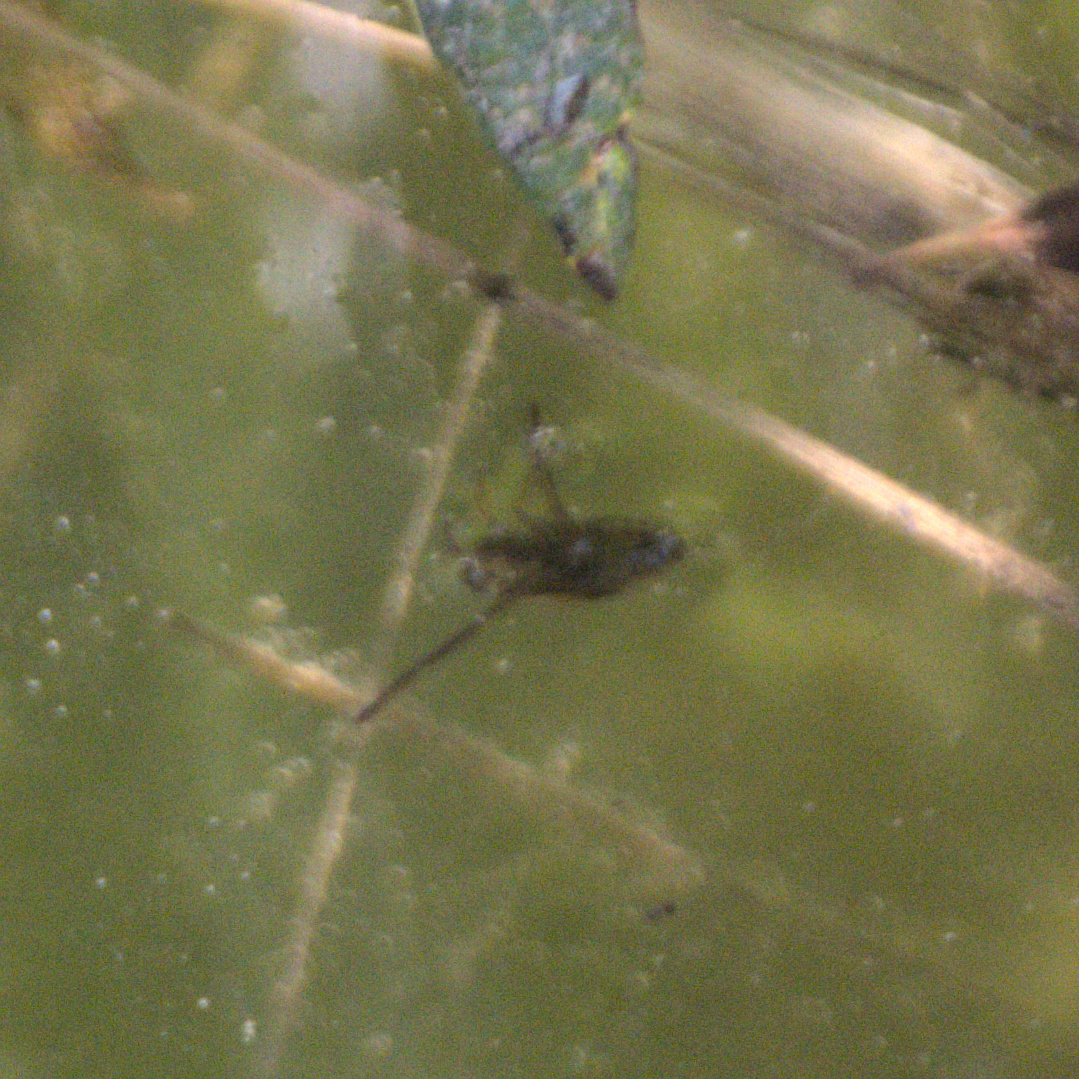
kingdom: Animalia
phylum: Arthropoda
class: Insecta
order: Hemiptera
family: Notonectidae
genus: Notonecta
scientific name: Notonecta
